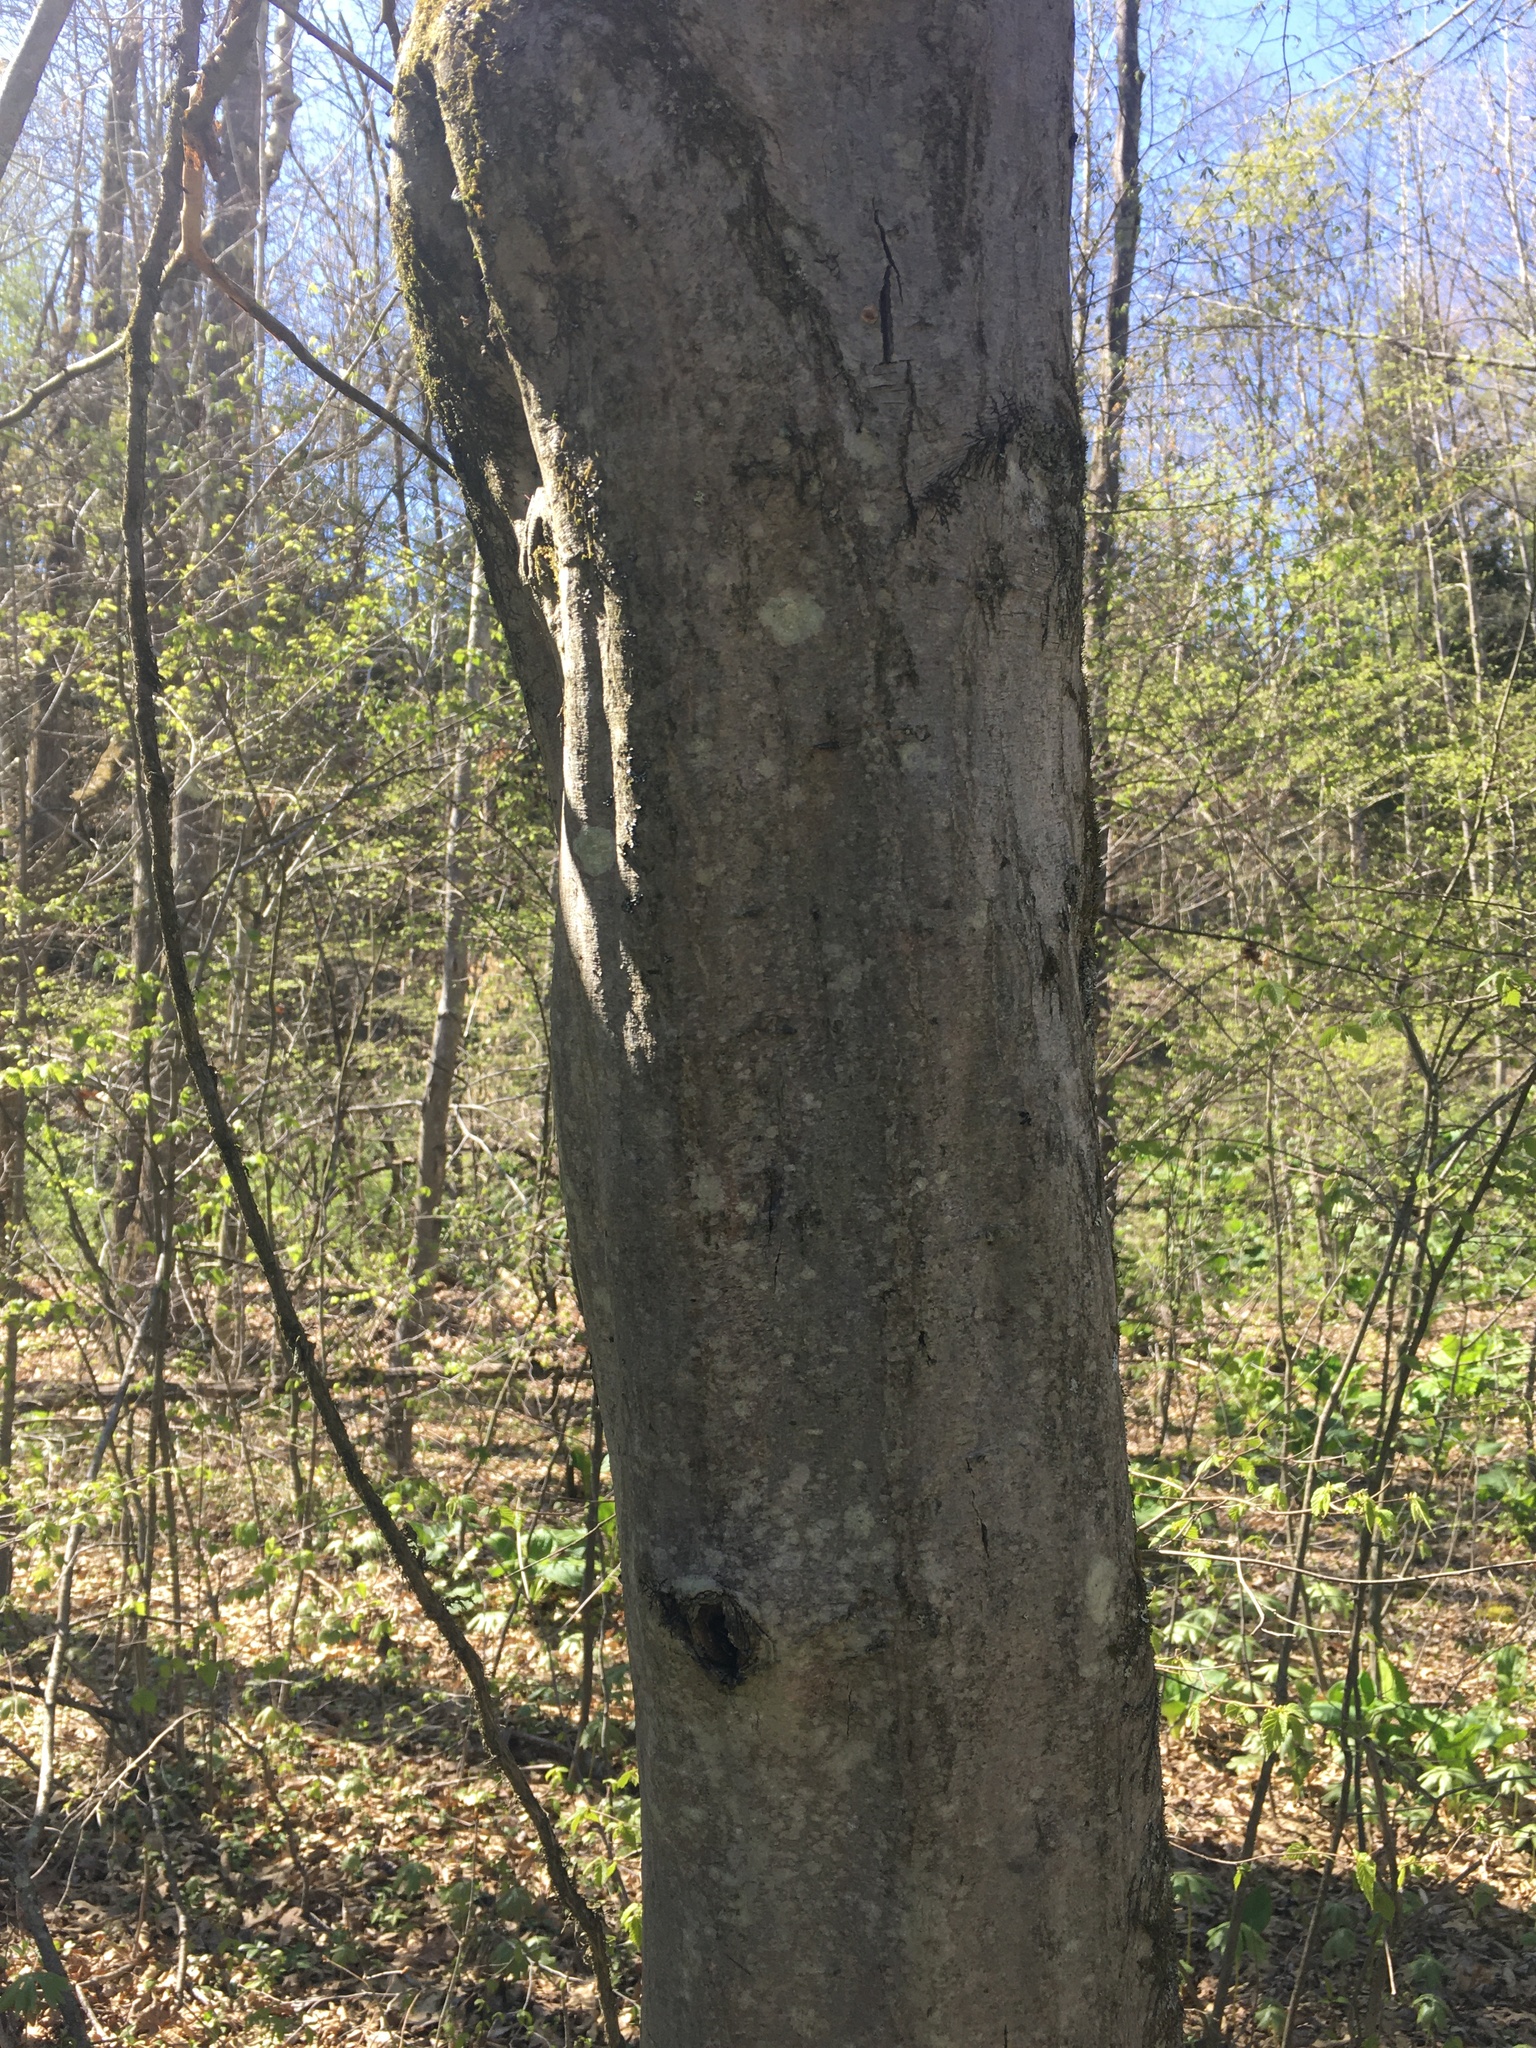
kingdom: Plantae
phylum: Tracheophyta
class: Magnoliopsida
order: Fagales
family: Betulaceae
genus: Carpinus
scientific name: Carpinus caroliniana
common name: American hornbeam
